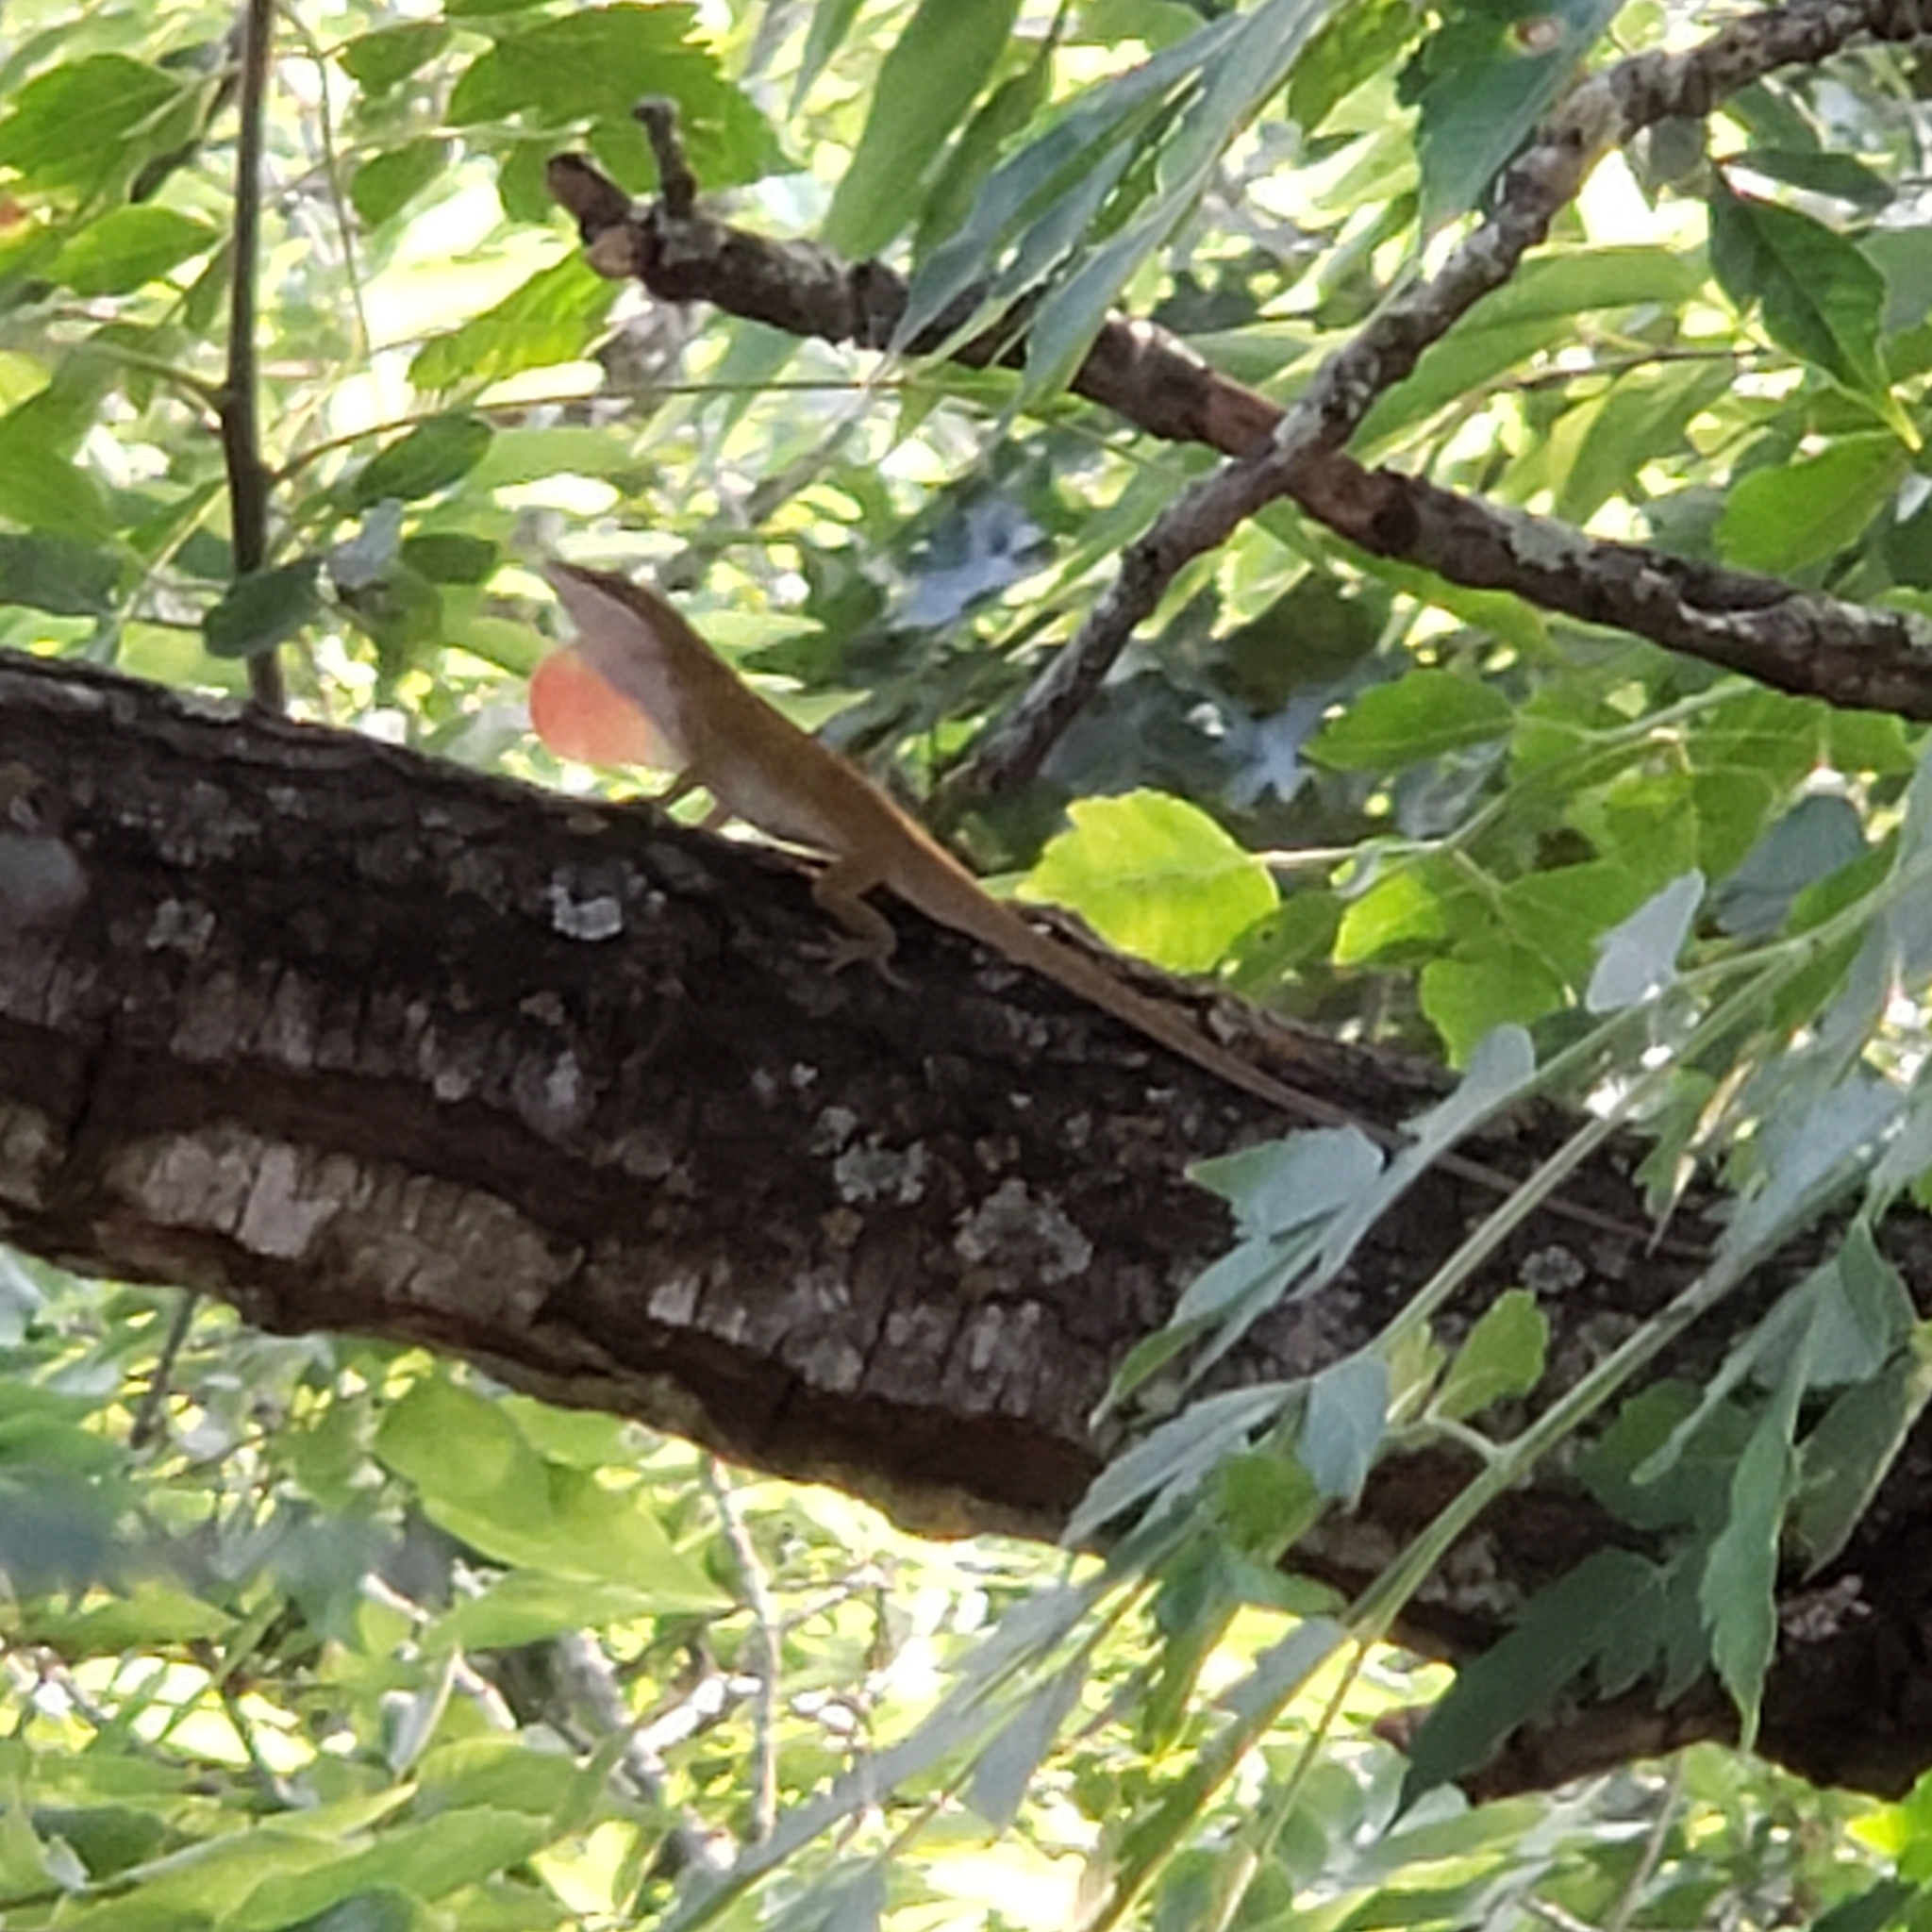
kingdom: Animalia
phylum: Chordata
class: Squamata
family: Dactyloidae
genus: Anolis
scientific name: Anolis carolinensis
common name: Green anole
